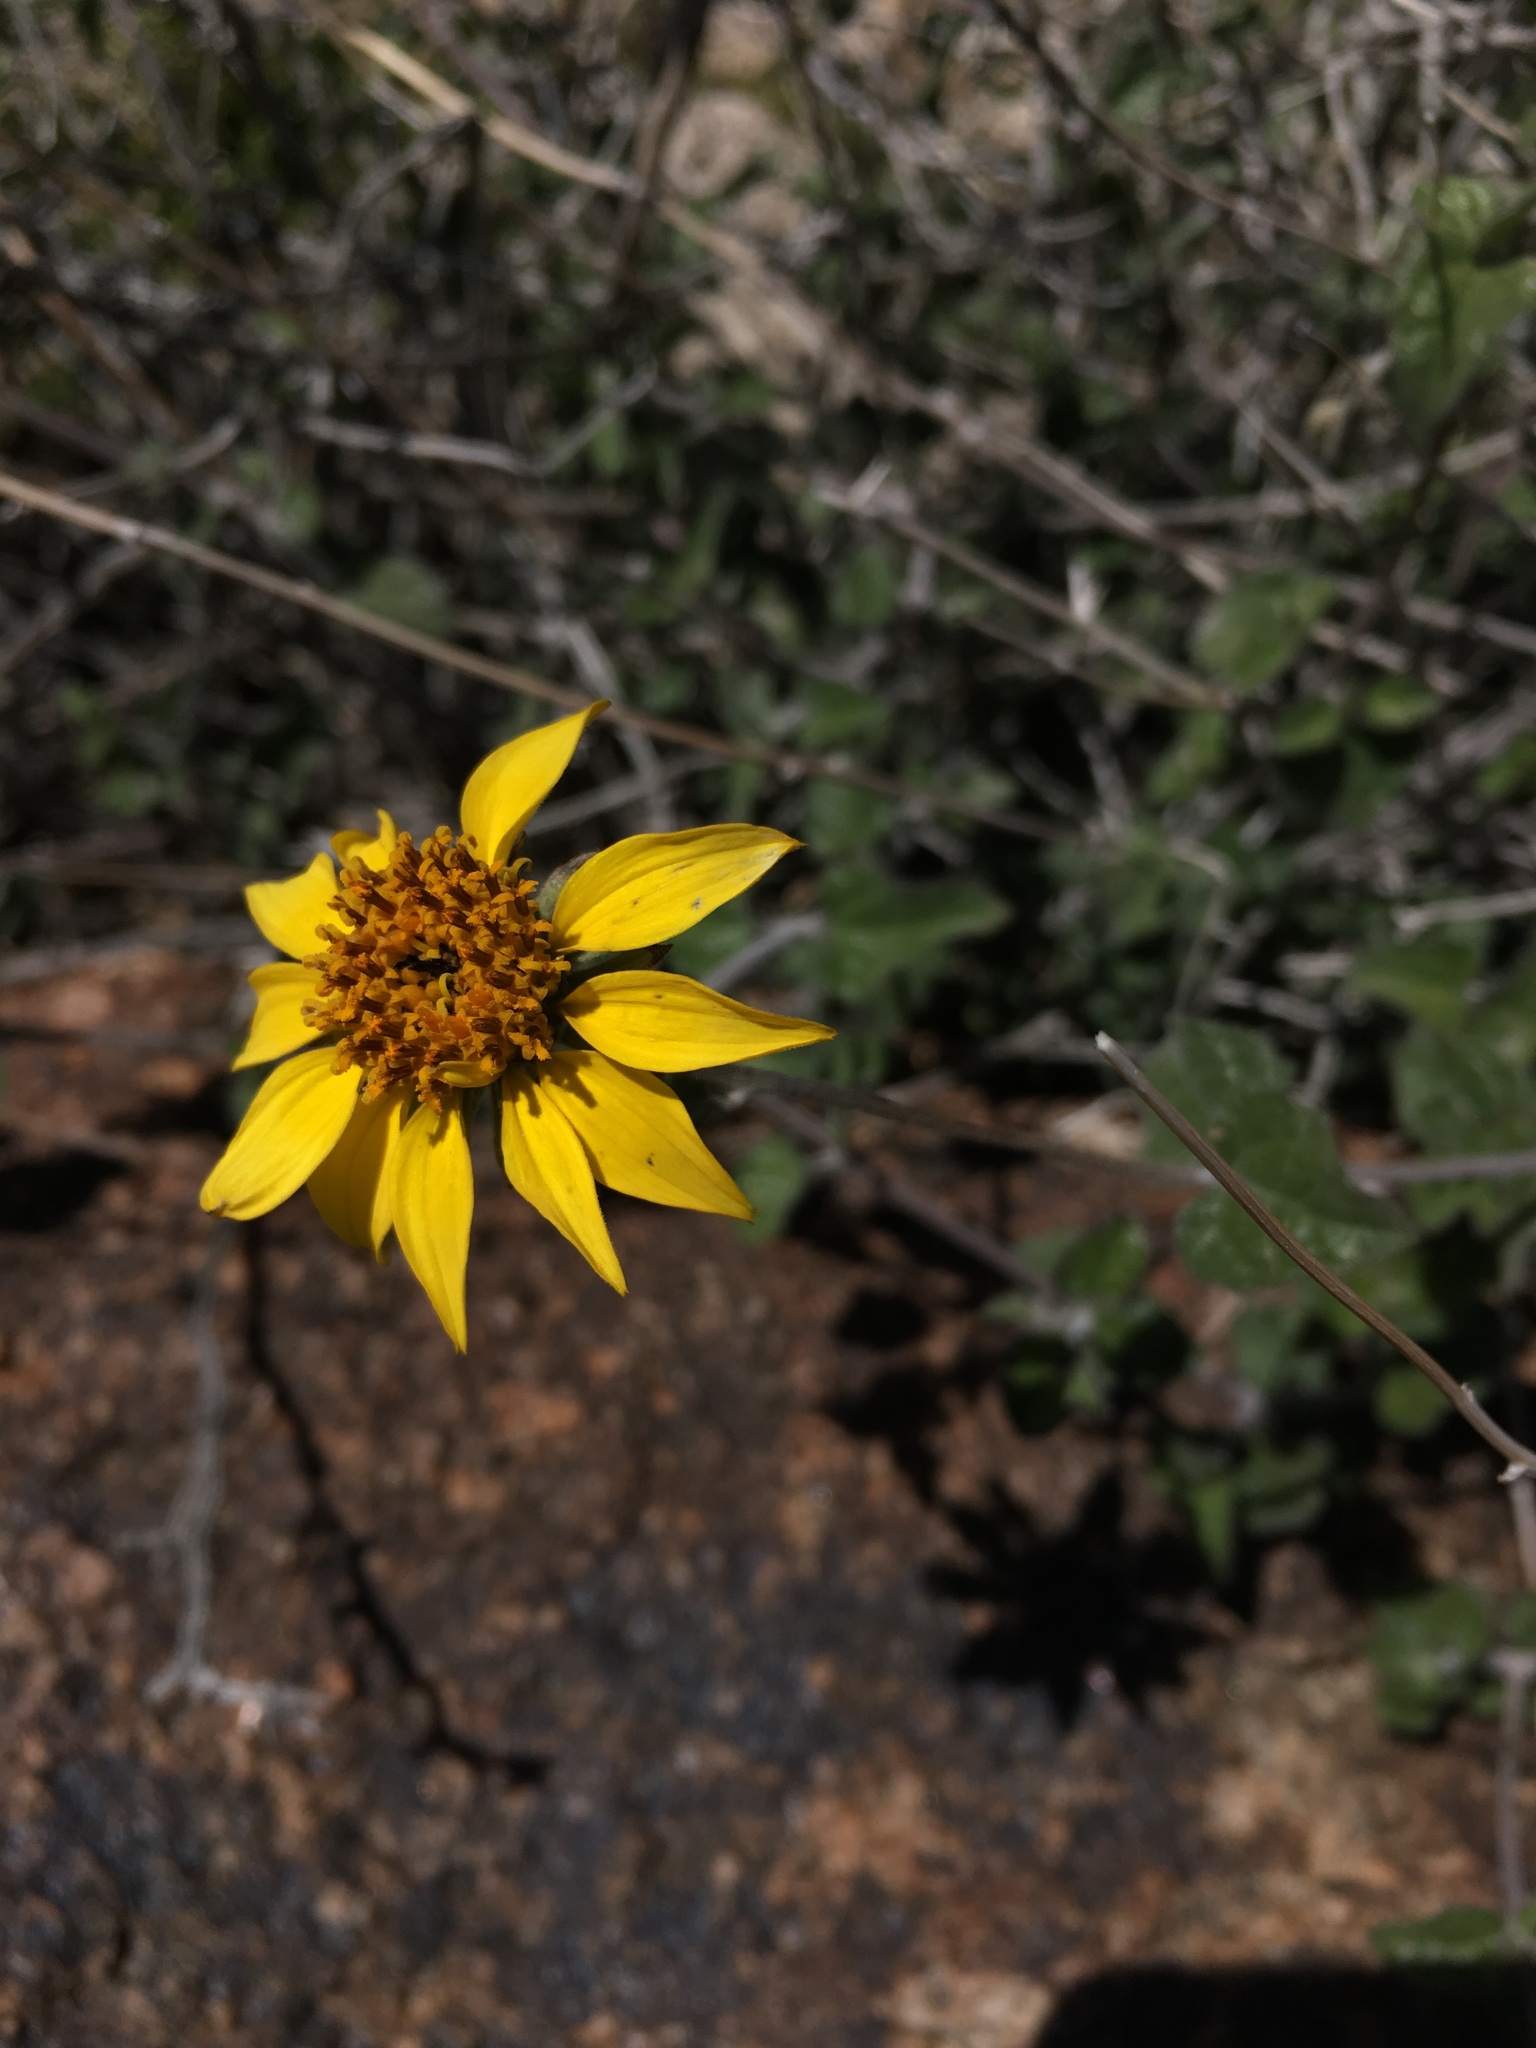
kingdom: Plantae
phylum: Tracheophyta
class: Magnoliopsida
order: Asterales
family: Asteraceae
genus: Bahiopsis
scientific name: Bahiopsis parishii
